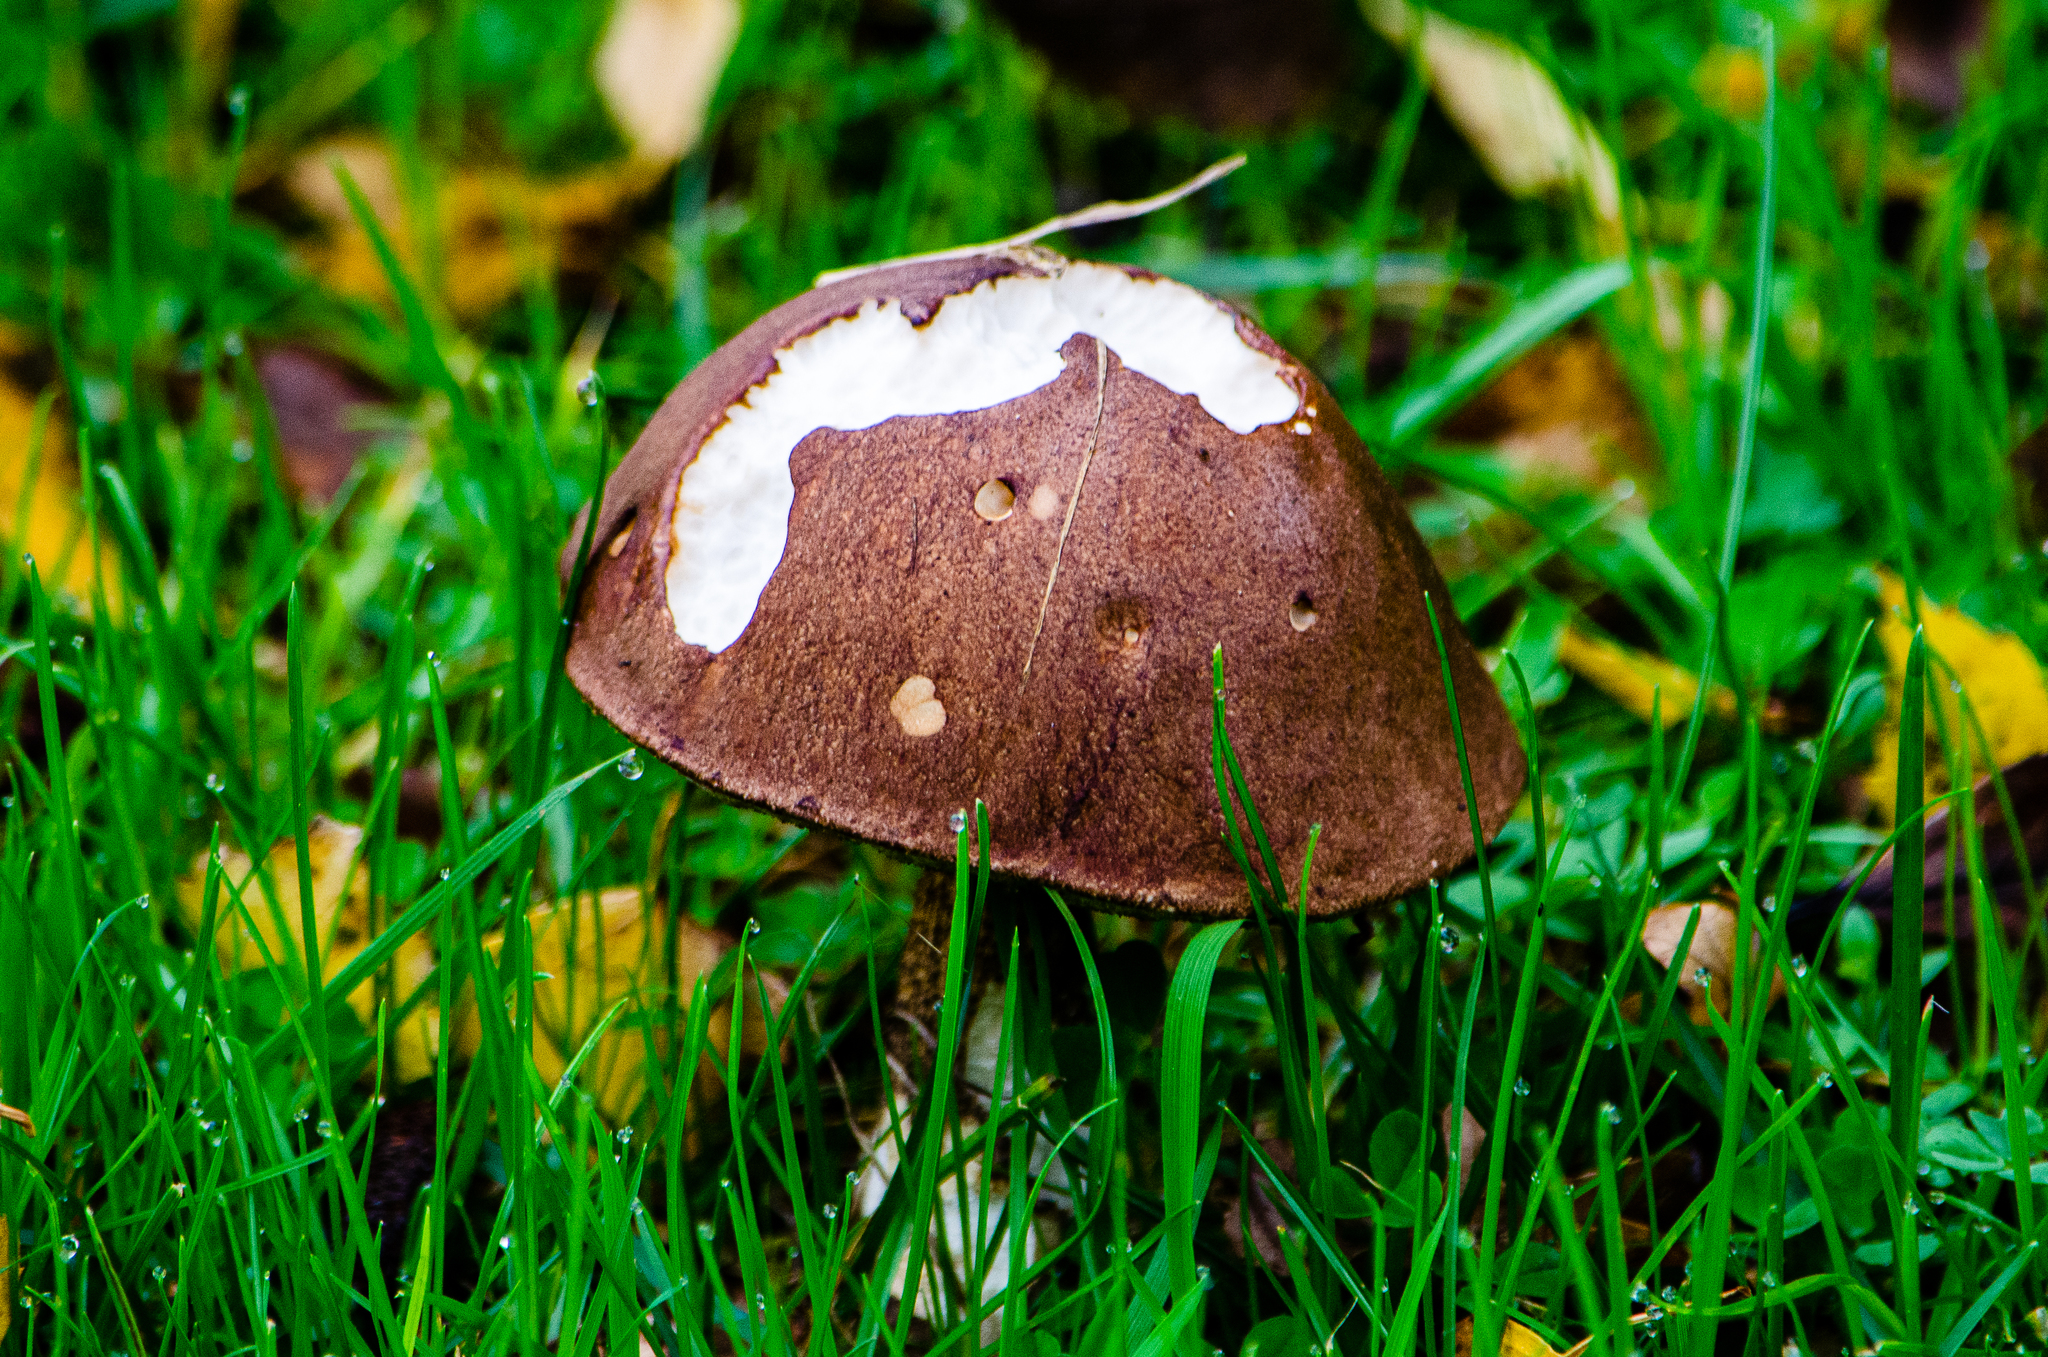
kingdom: Fungi
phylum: Basidiomycota
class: Agaricomycetes
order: Boletales
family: Boletaceae
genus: Leccinum
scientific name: Leccinum scabrum
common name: Blushing bolete
